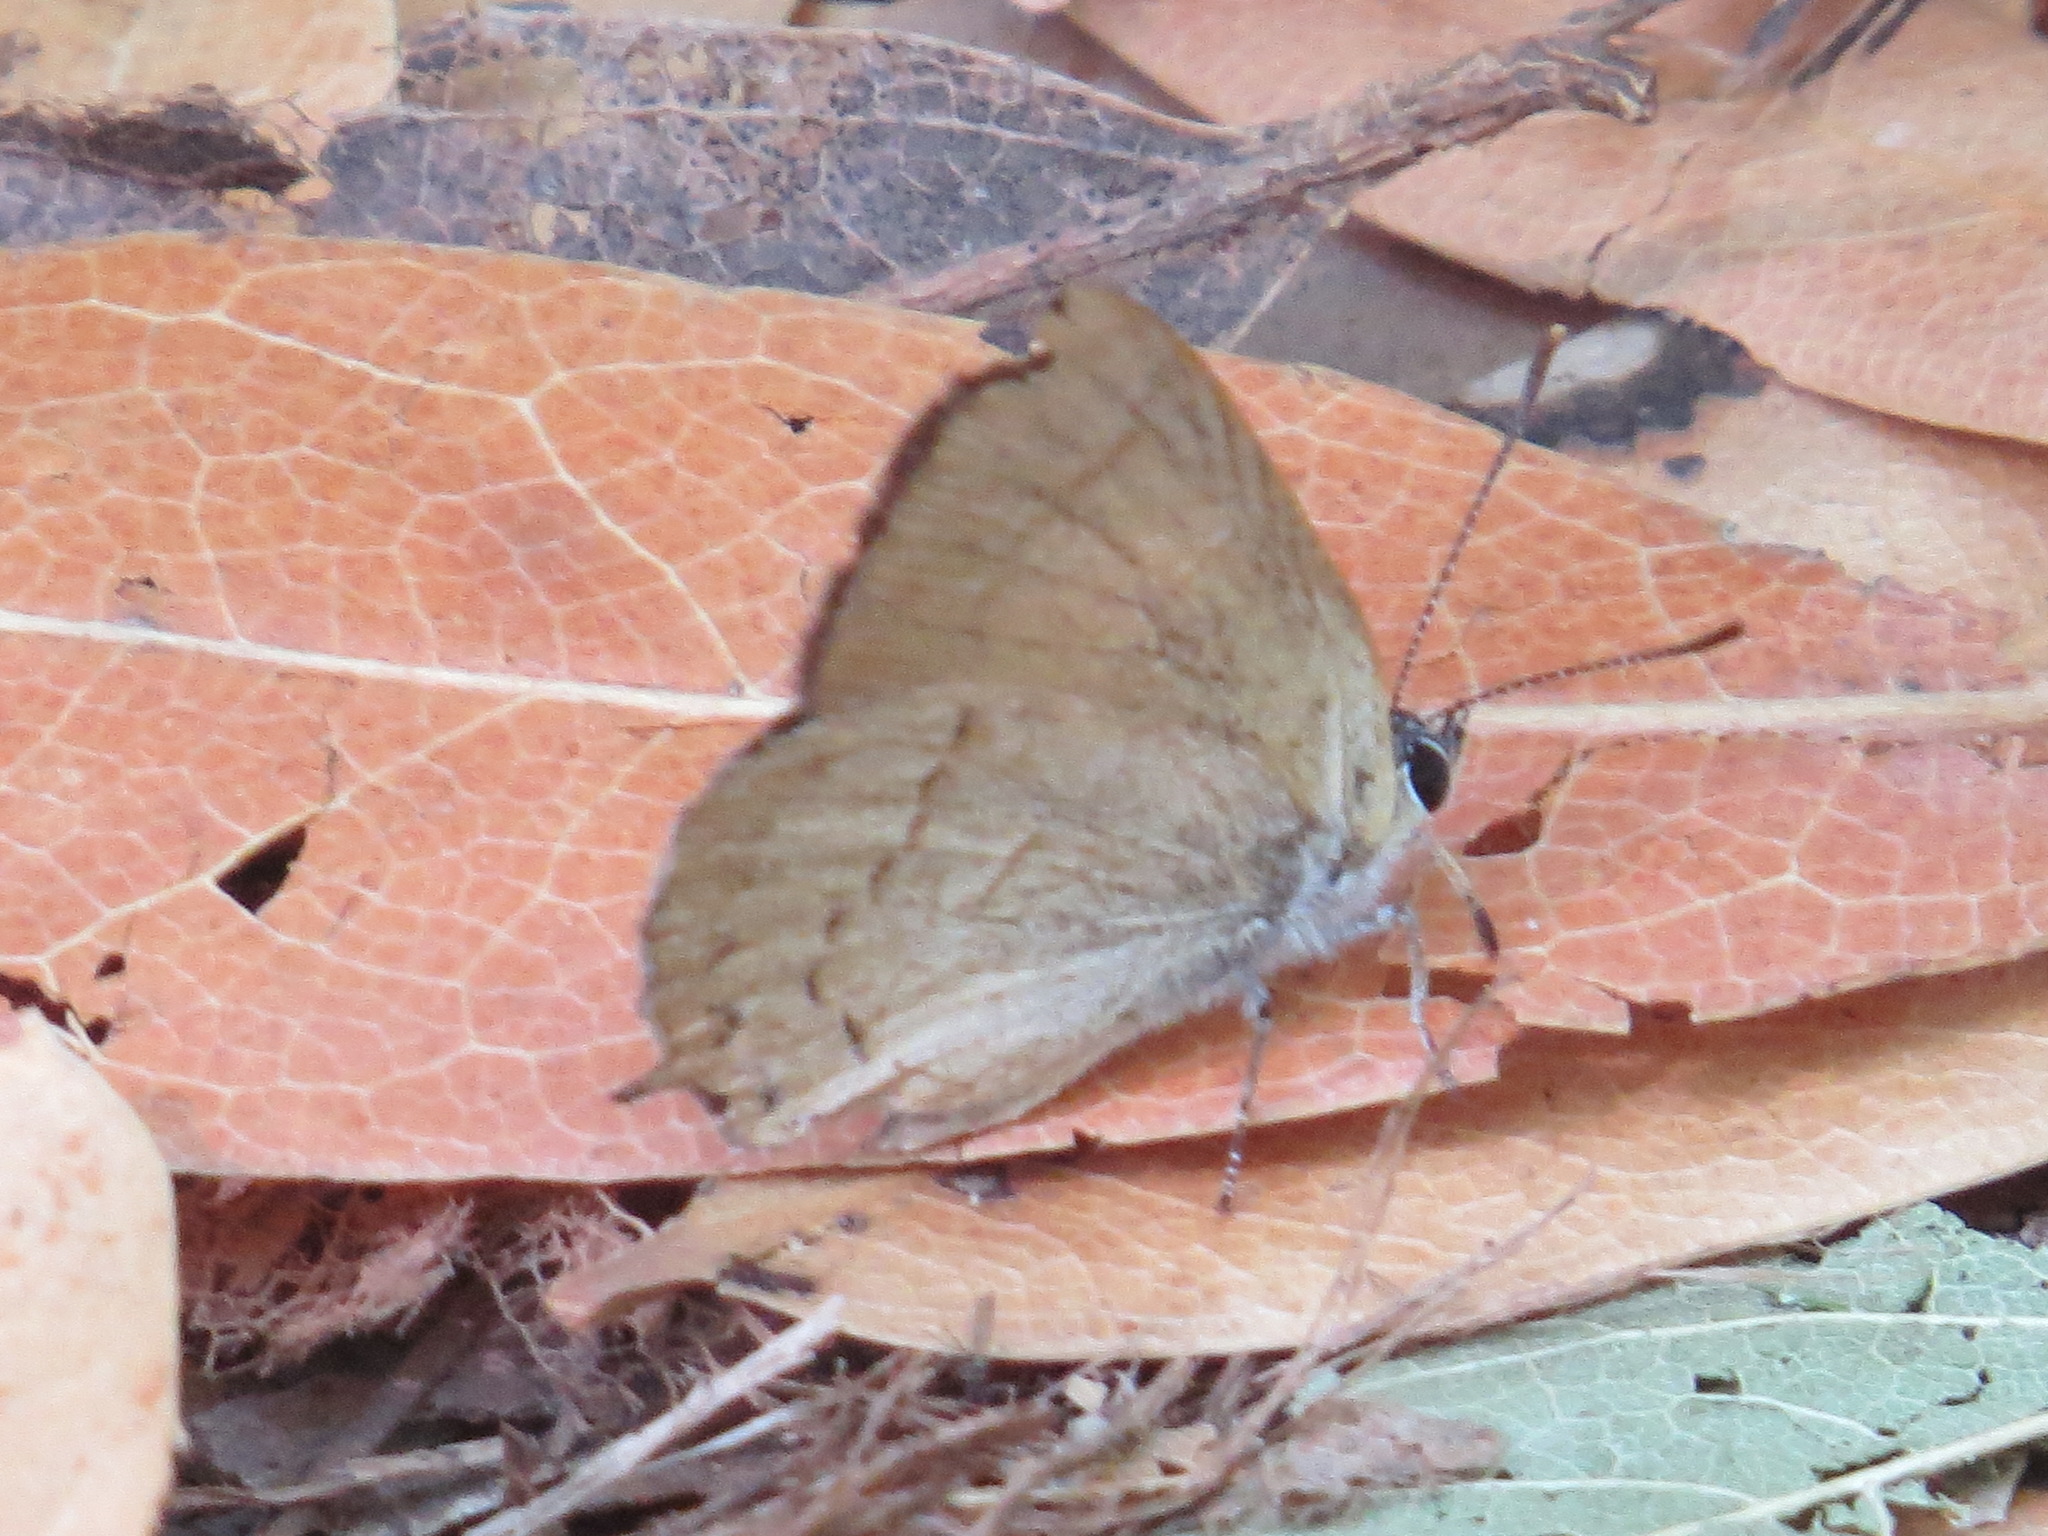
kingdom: Animalia
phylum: Arthropoda
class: Insecta
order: Lepidoptera
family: Lycaenidae
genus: Habrodais
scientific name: Habrodais grunus
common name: Golden hairstreak
